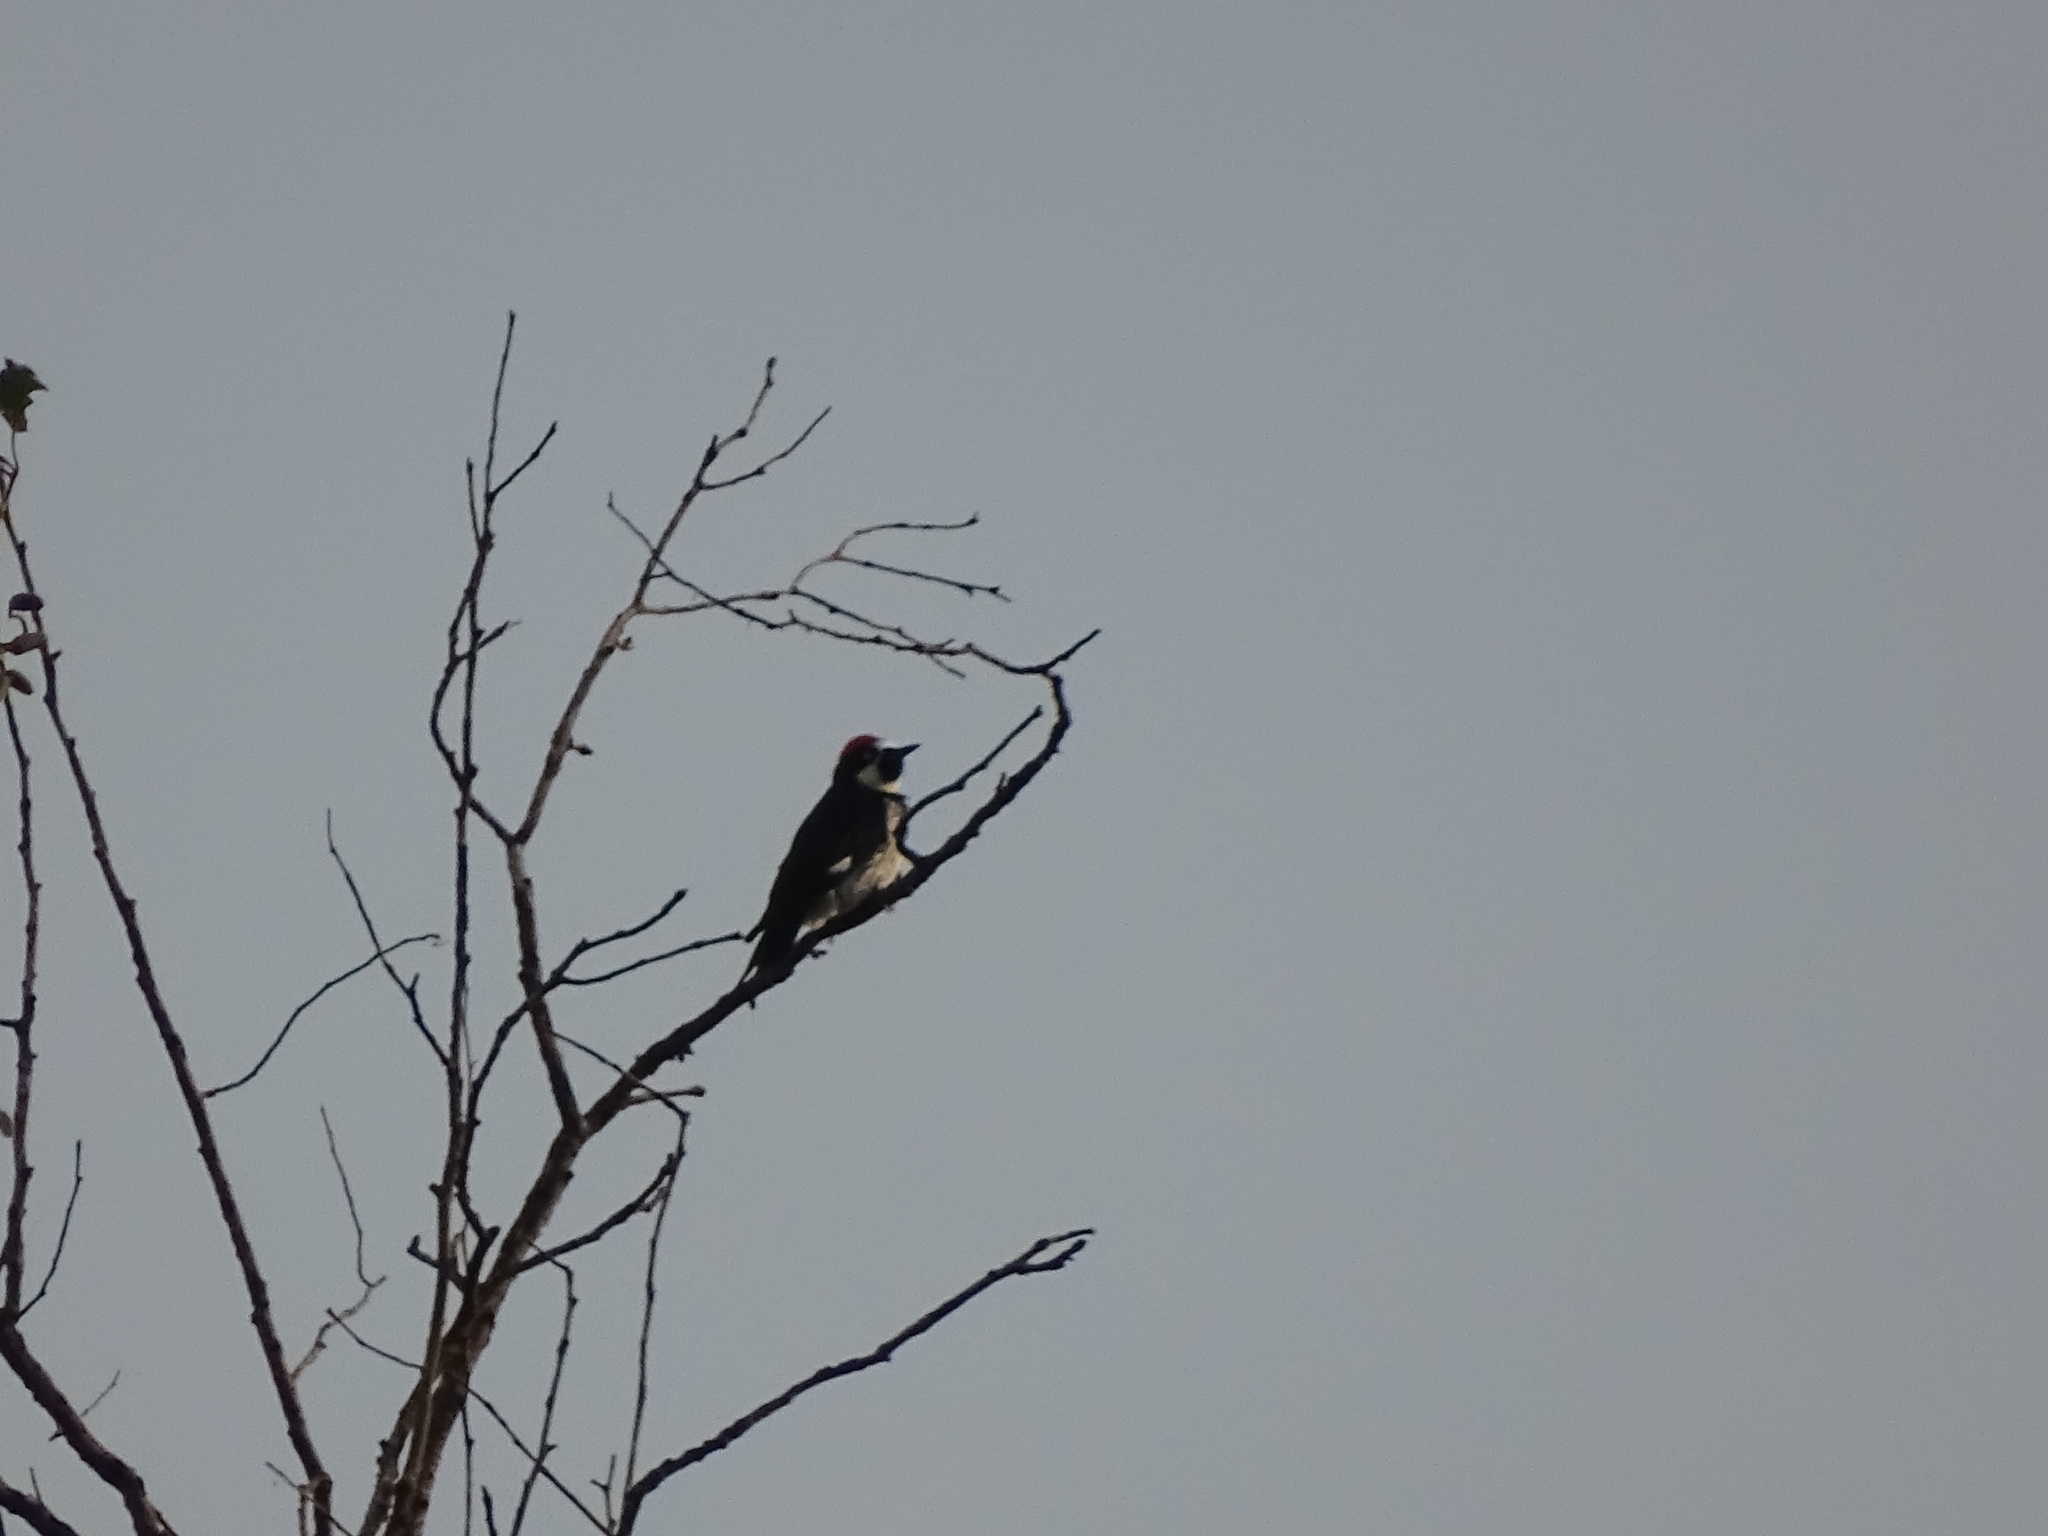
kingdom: Animalia
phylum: Chordata
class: Aves
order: Piciformes
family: Picidae
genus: Melanerpes
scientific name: Melanerpes formicivorus
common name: Acorn woodpecker
